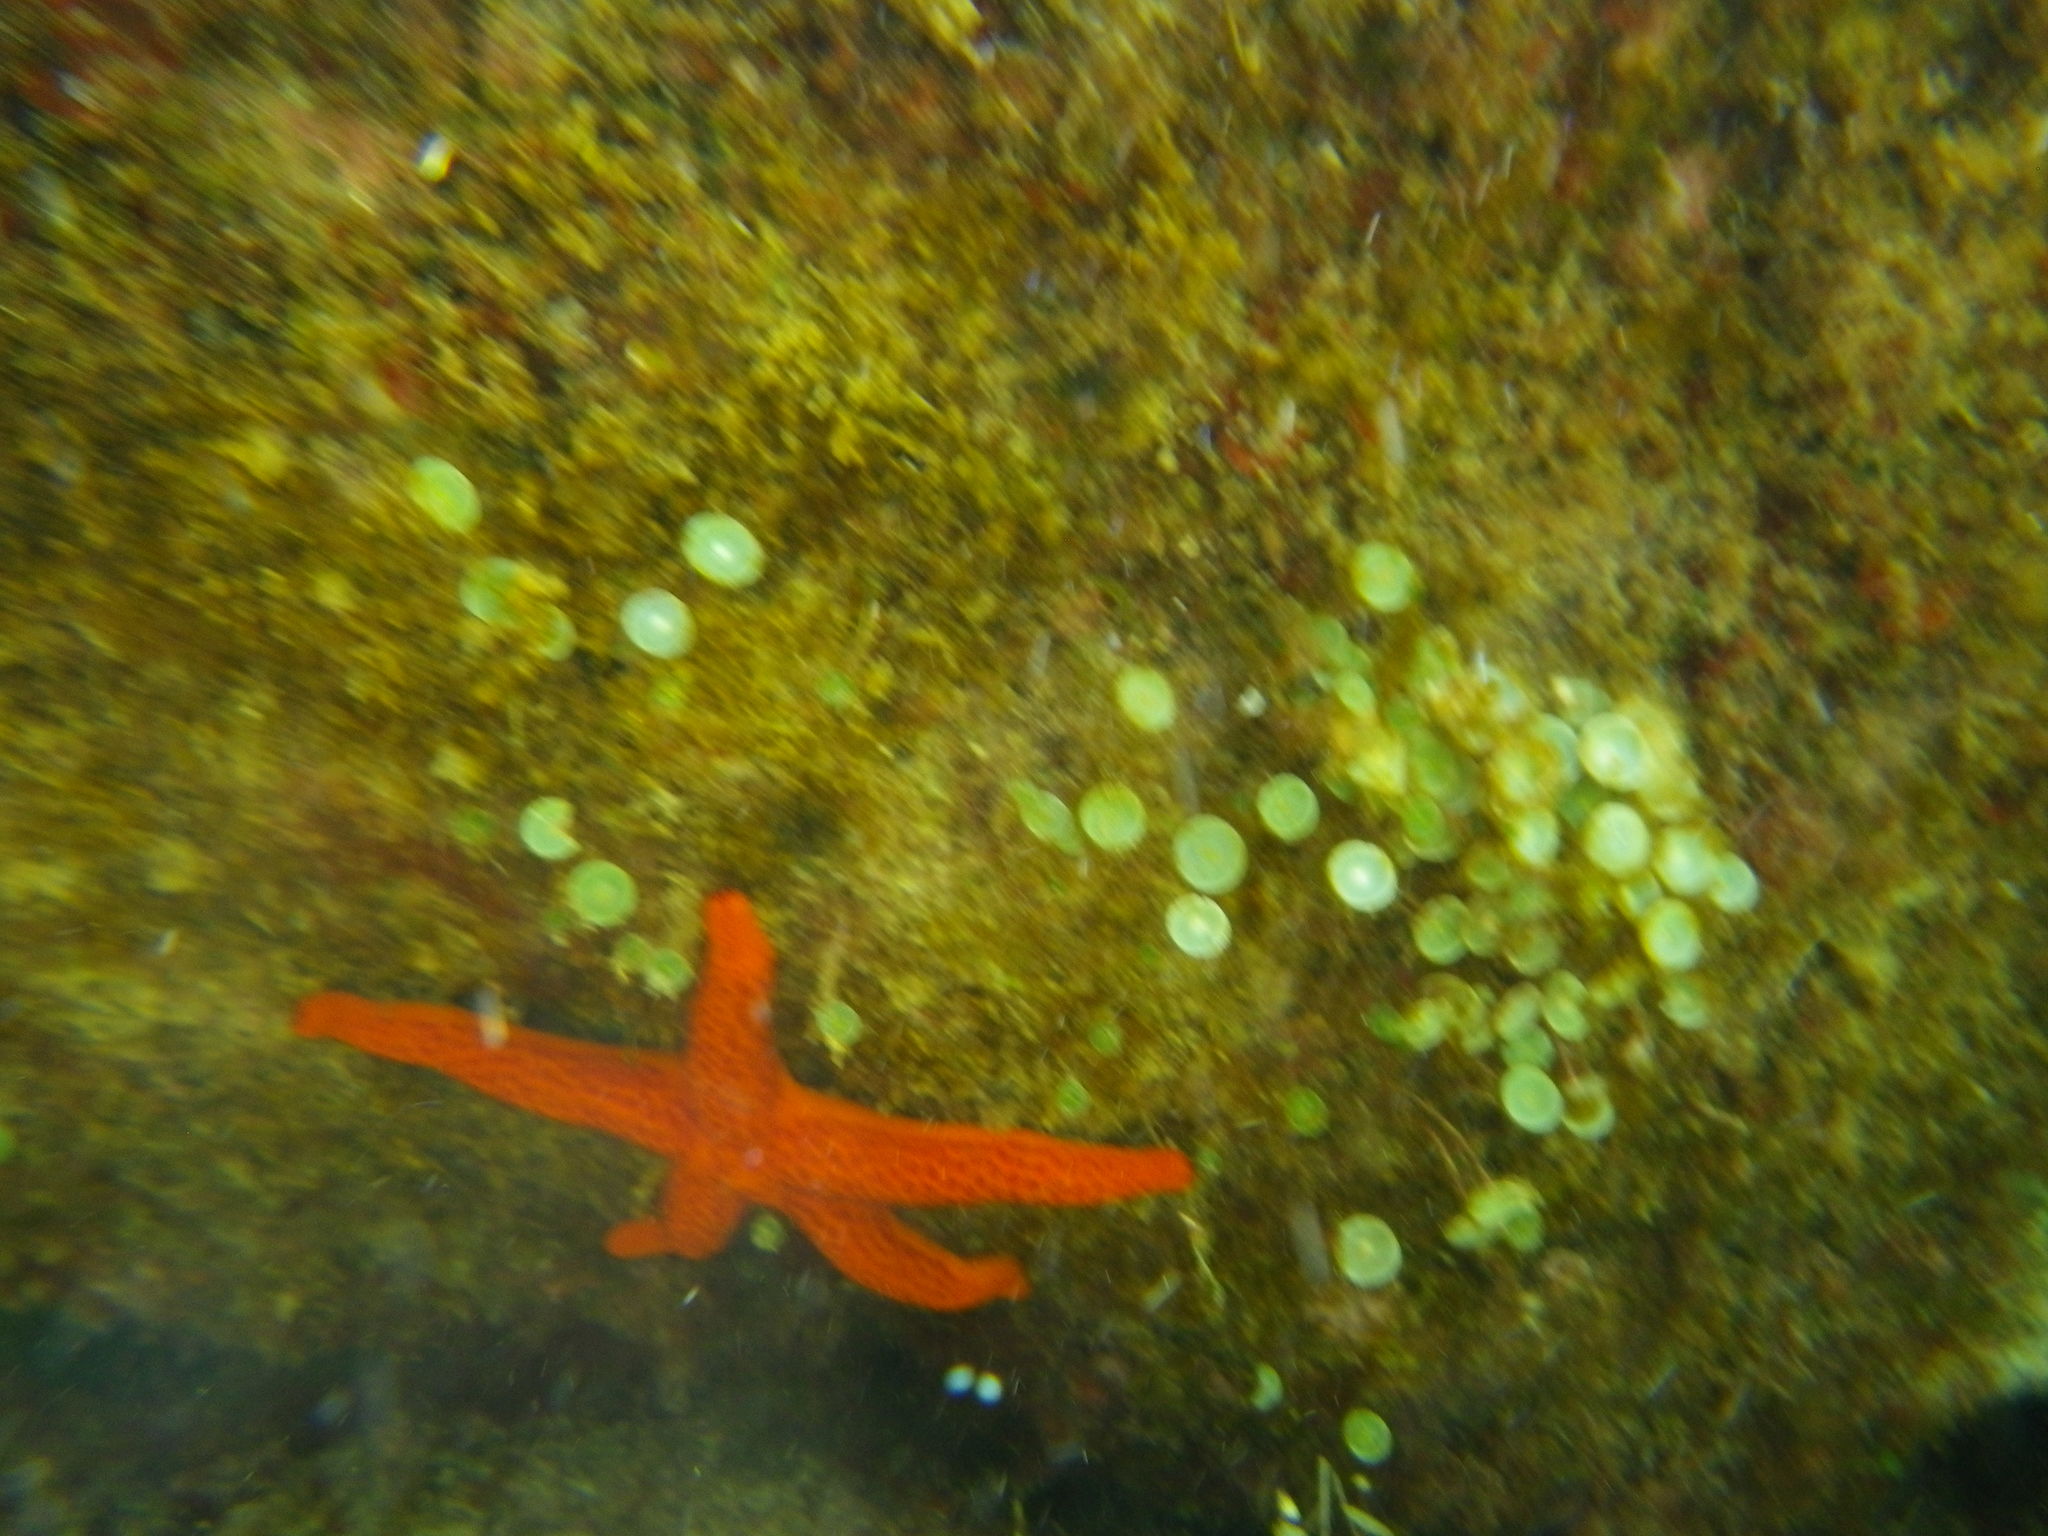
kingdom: Animalia
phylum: Echinodermata
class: Asteroidea
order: Spinulosida
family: Echinasteridae
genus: Echinaster
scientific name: Echinaster sepositus
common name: Red starfish
